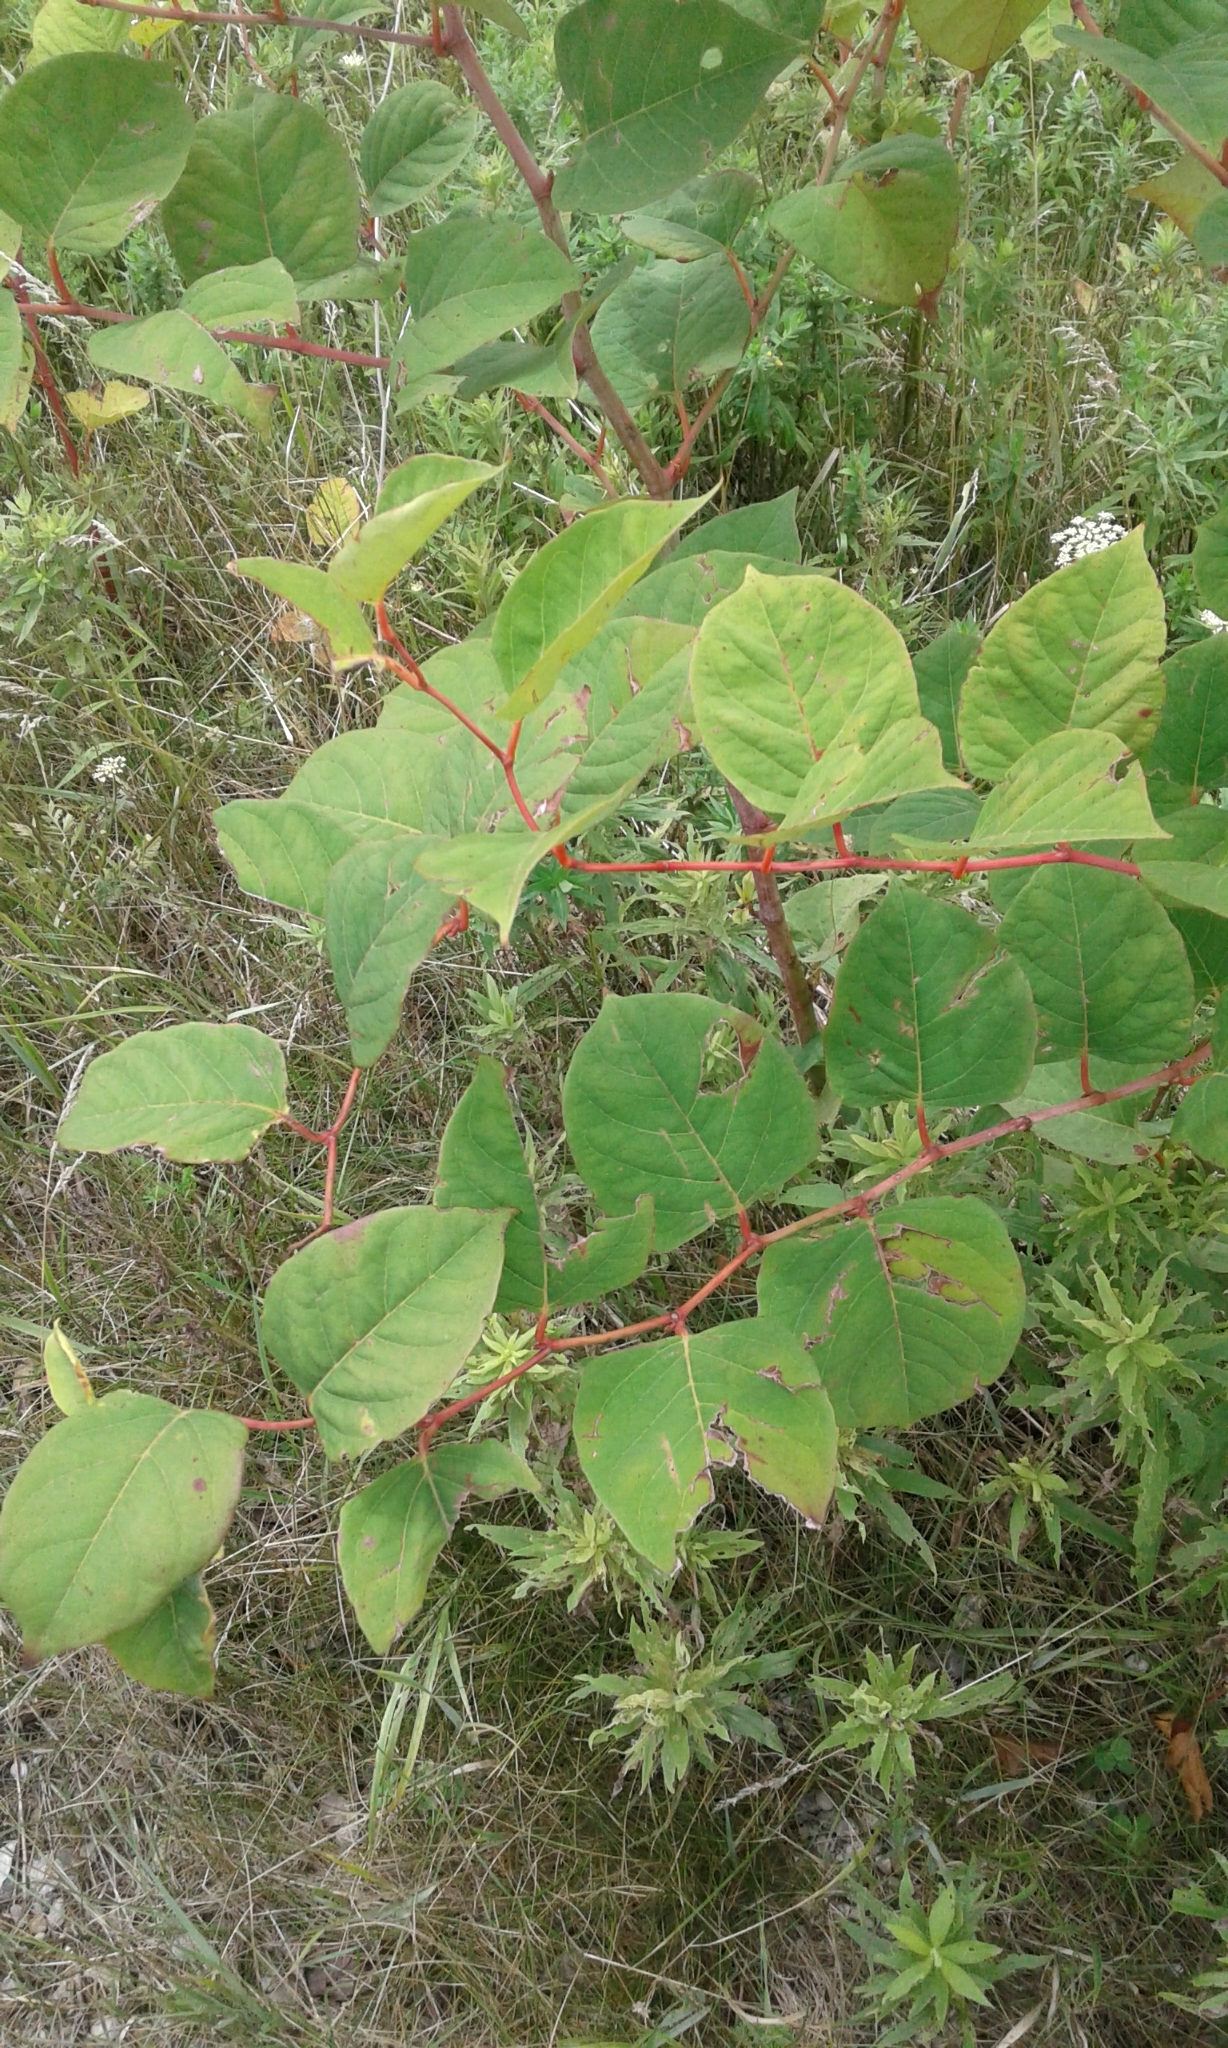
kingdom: Plantae
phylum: Tracheophyta
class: Magnoliopsida
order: Caryophyllales
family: Polygonaceae
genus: Reynoutria
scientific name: Reynoutria japonica
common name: Japanese knotweed
